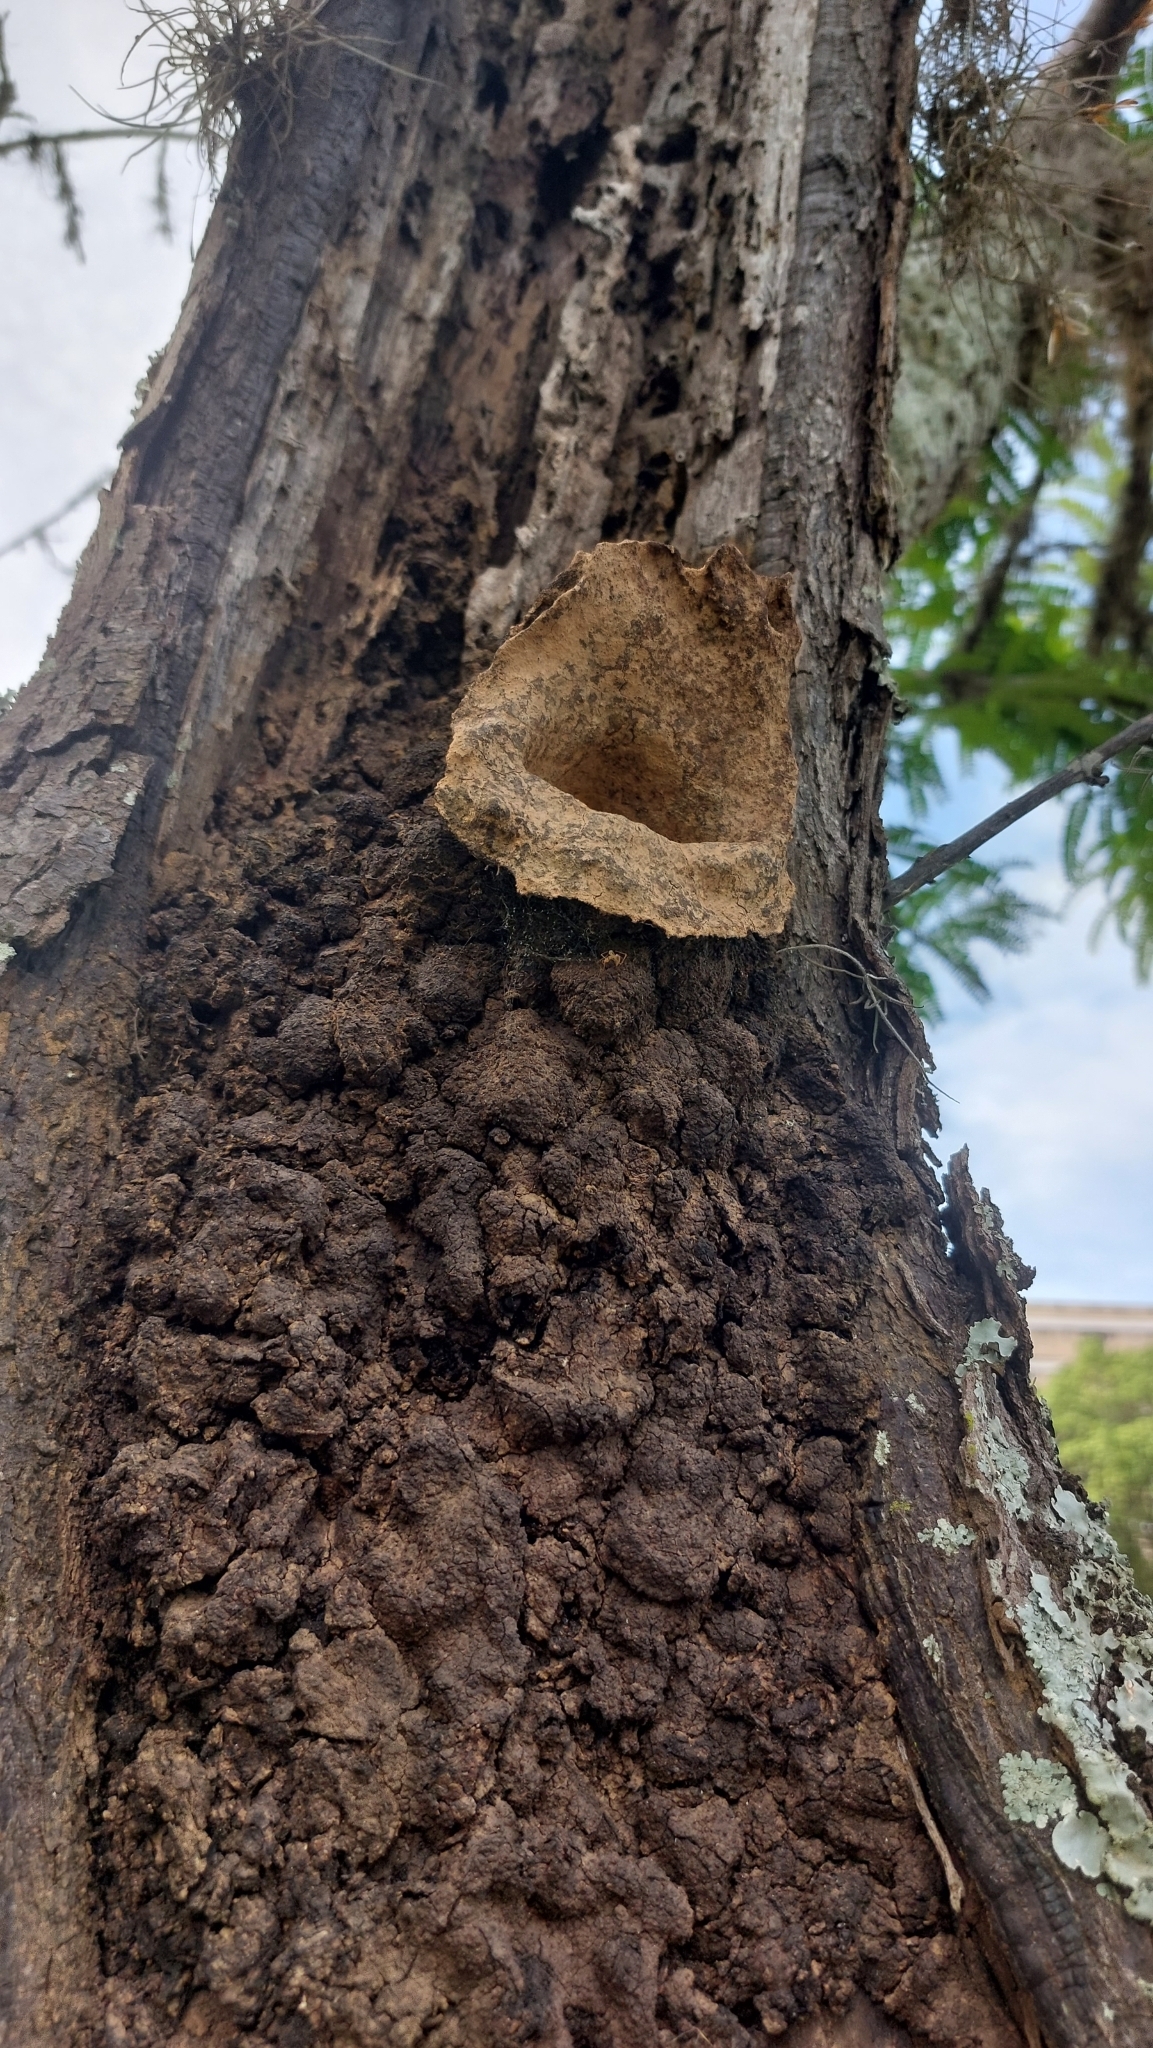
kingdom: Animalia
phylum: Arthropoda
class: Insecta
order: Hymenoptera
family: Apidae
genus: Partamona
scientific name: Partamona helleri
